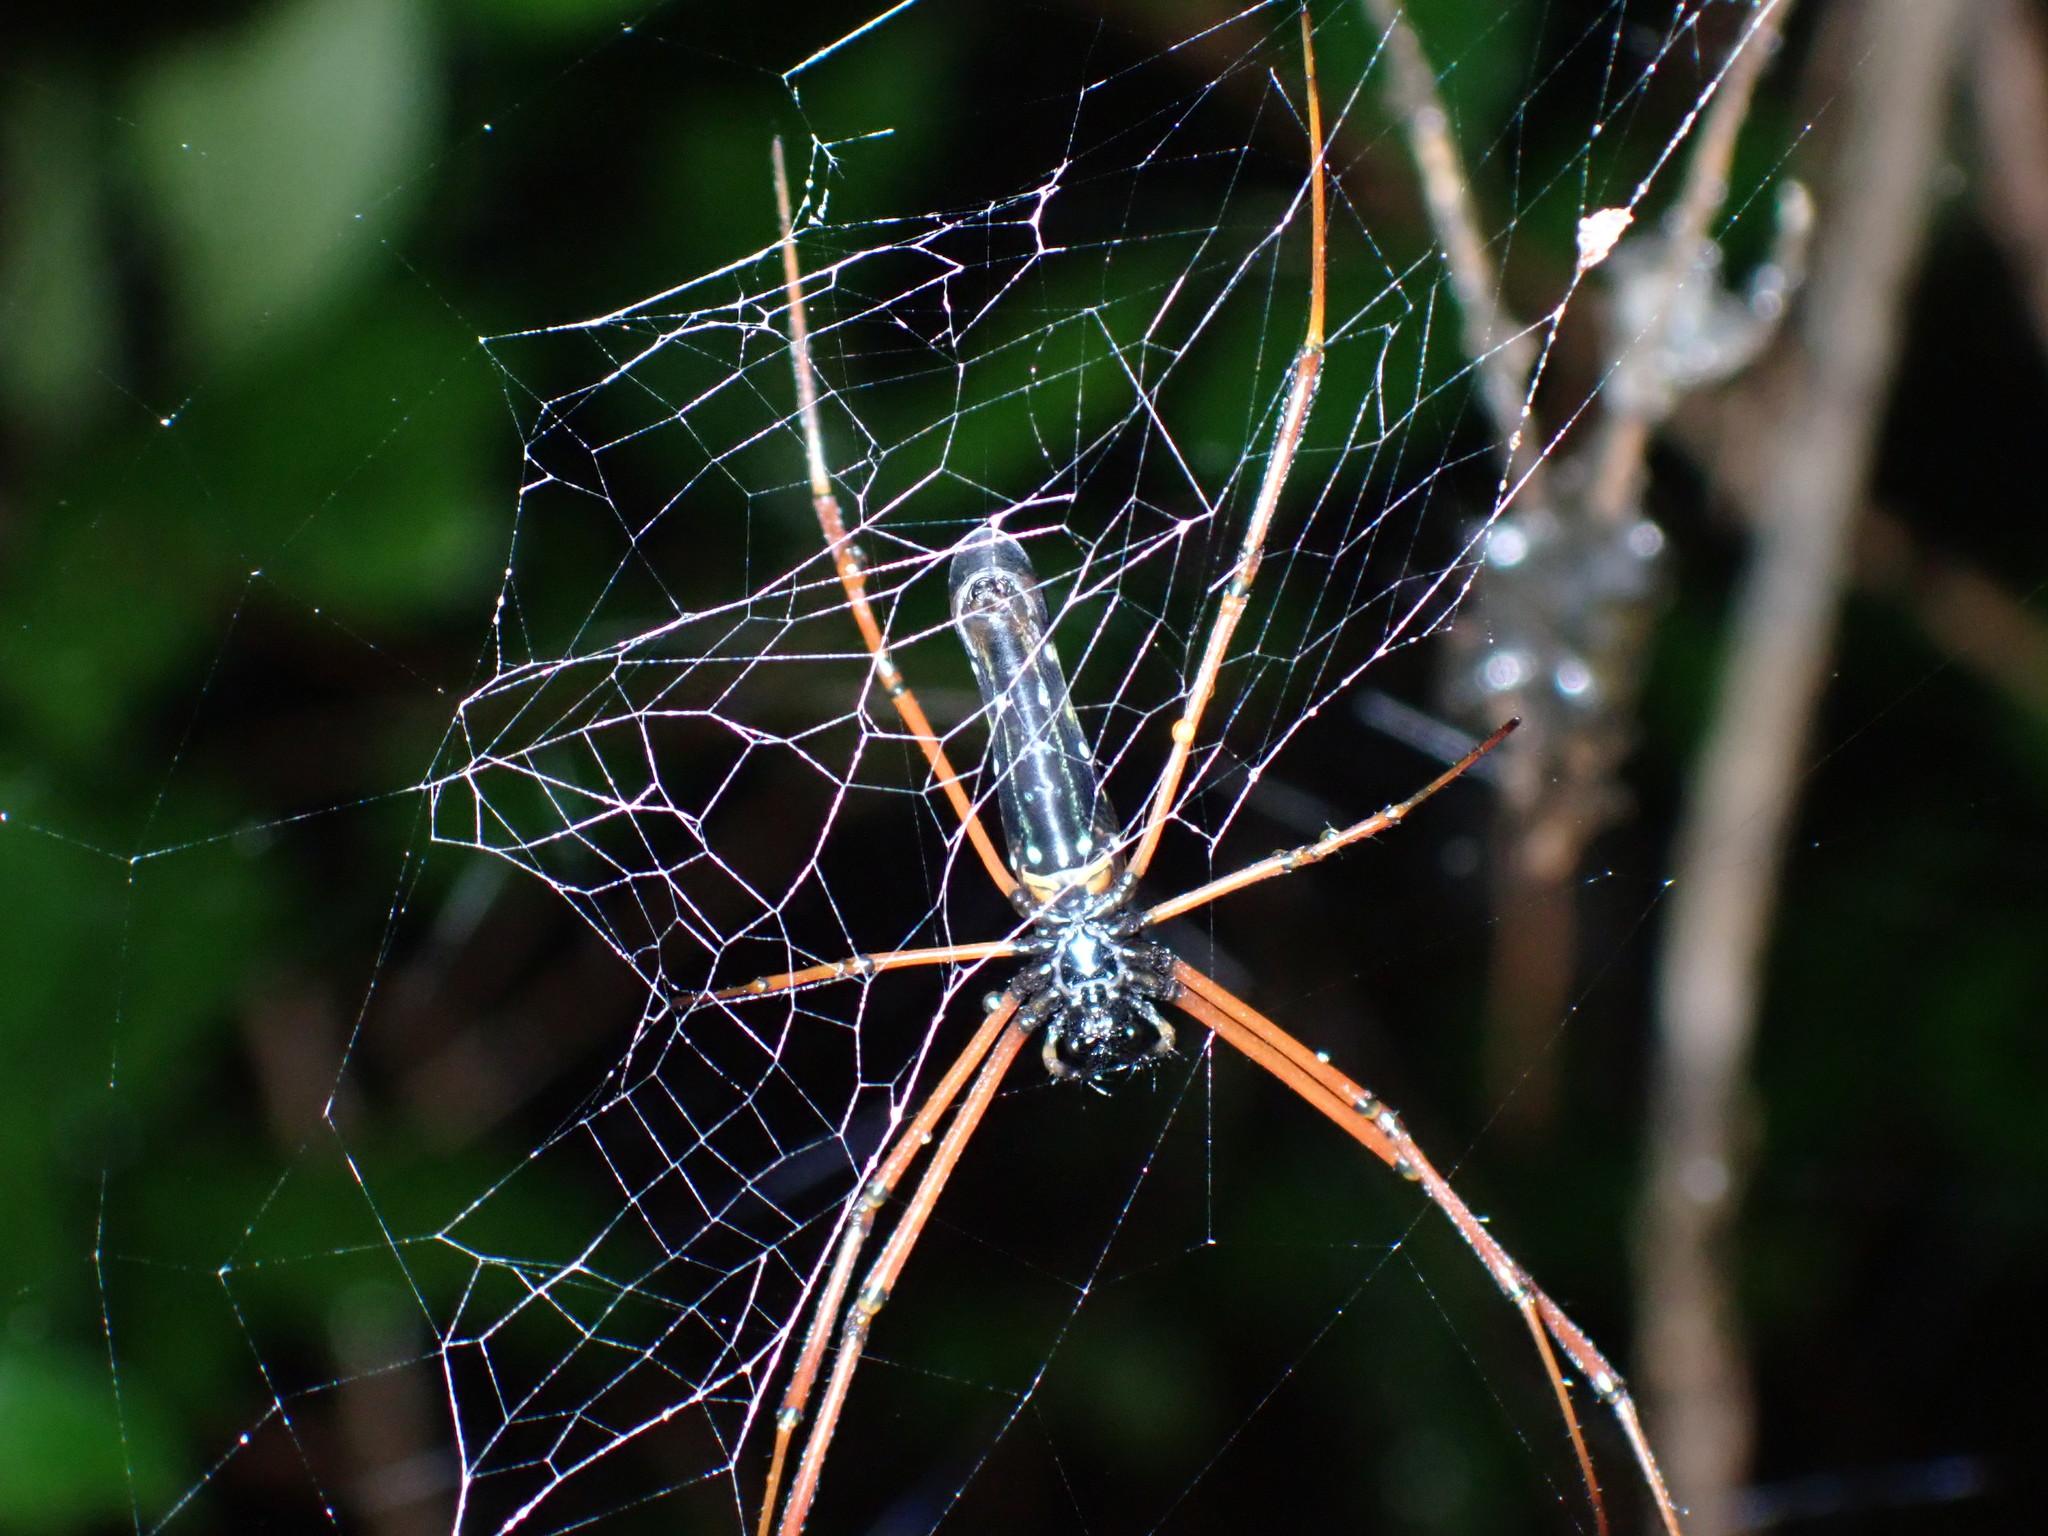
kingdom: Animalia
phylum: Arthropoda
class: Arachnida
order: Araneae
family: Araneidae
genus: Nephila
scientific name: Nephila kuhli
